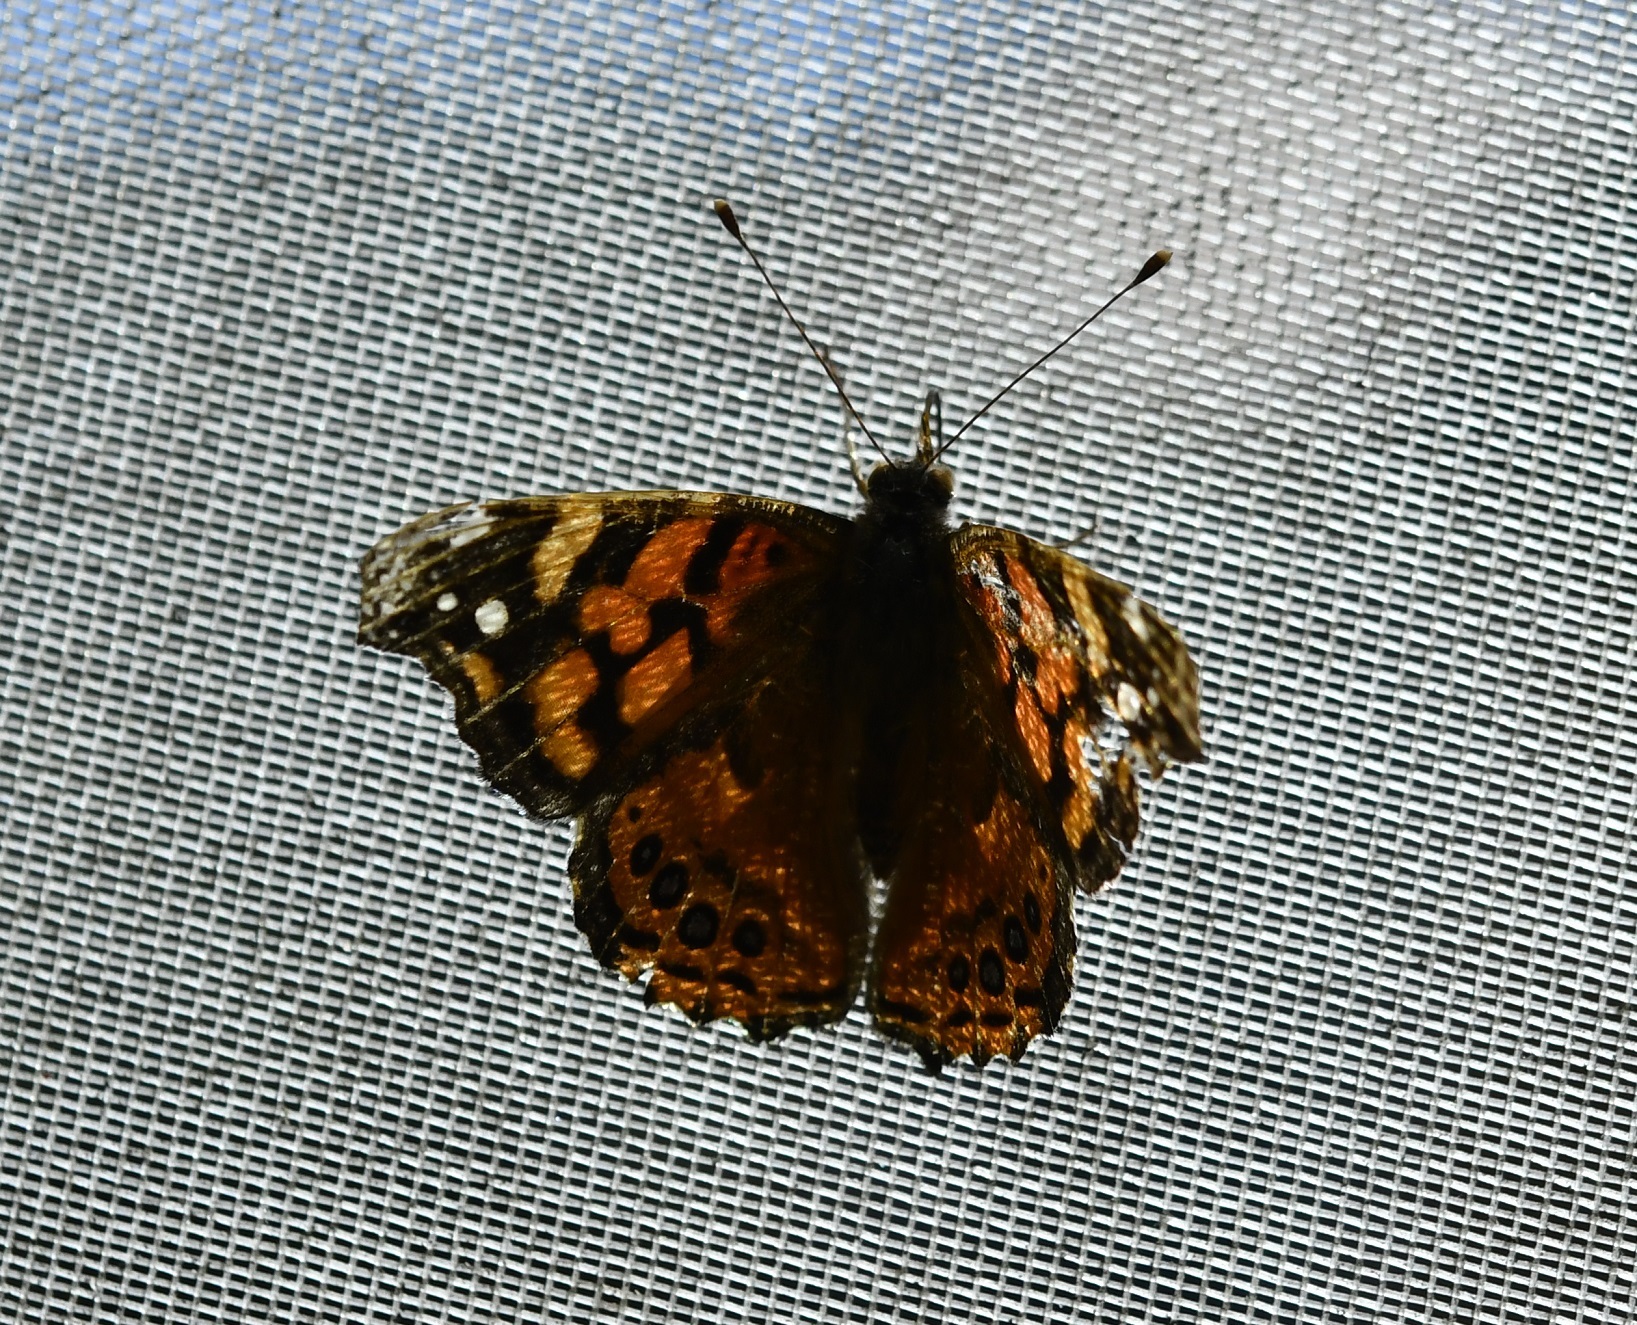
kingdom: Animalia
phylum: Arthropoda
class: Insecta
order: Lepidoptera
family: Nymphalidae
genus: Vanessa
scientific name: Vanessa annabella
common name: West coast lady
